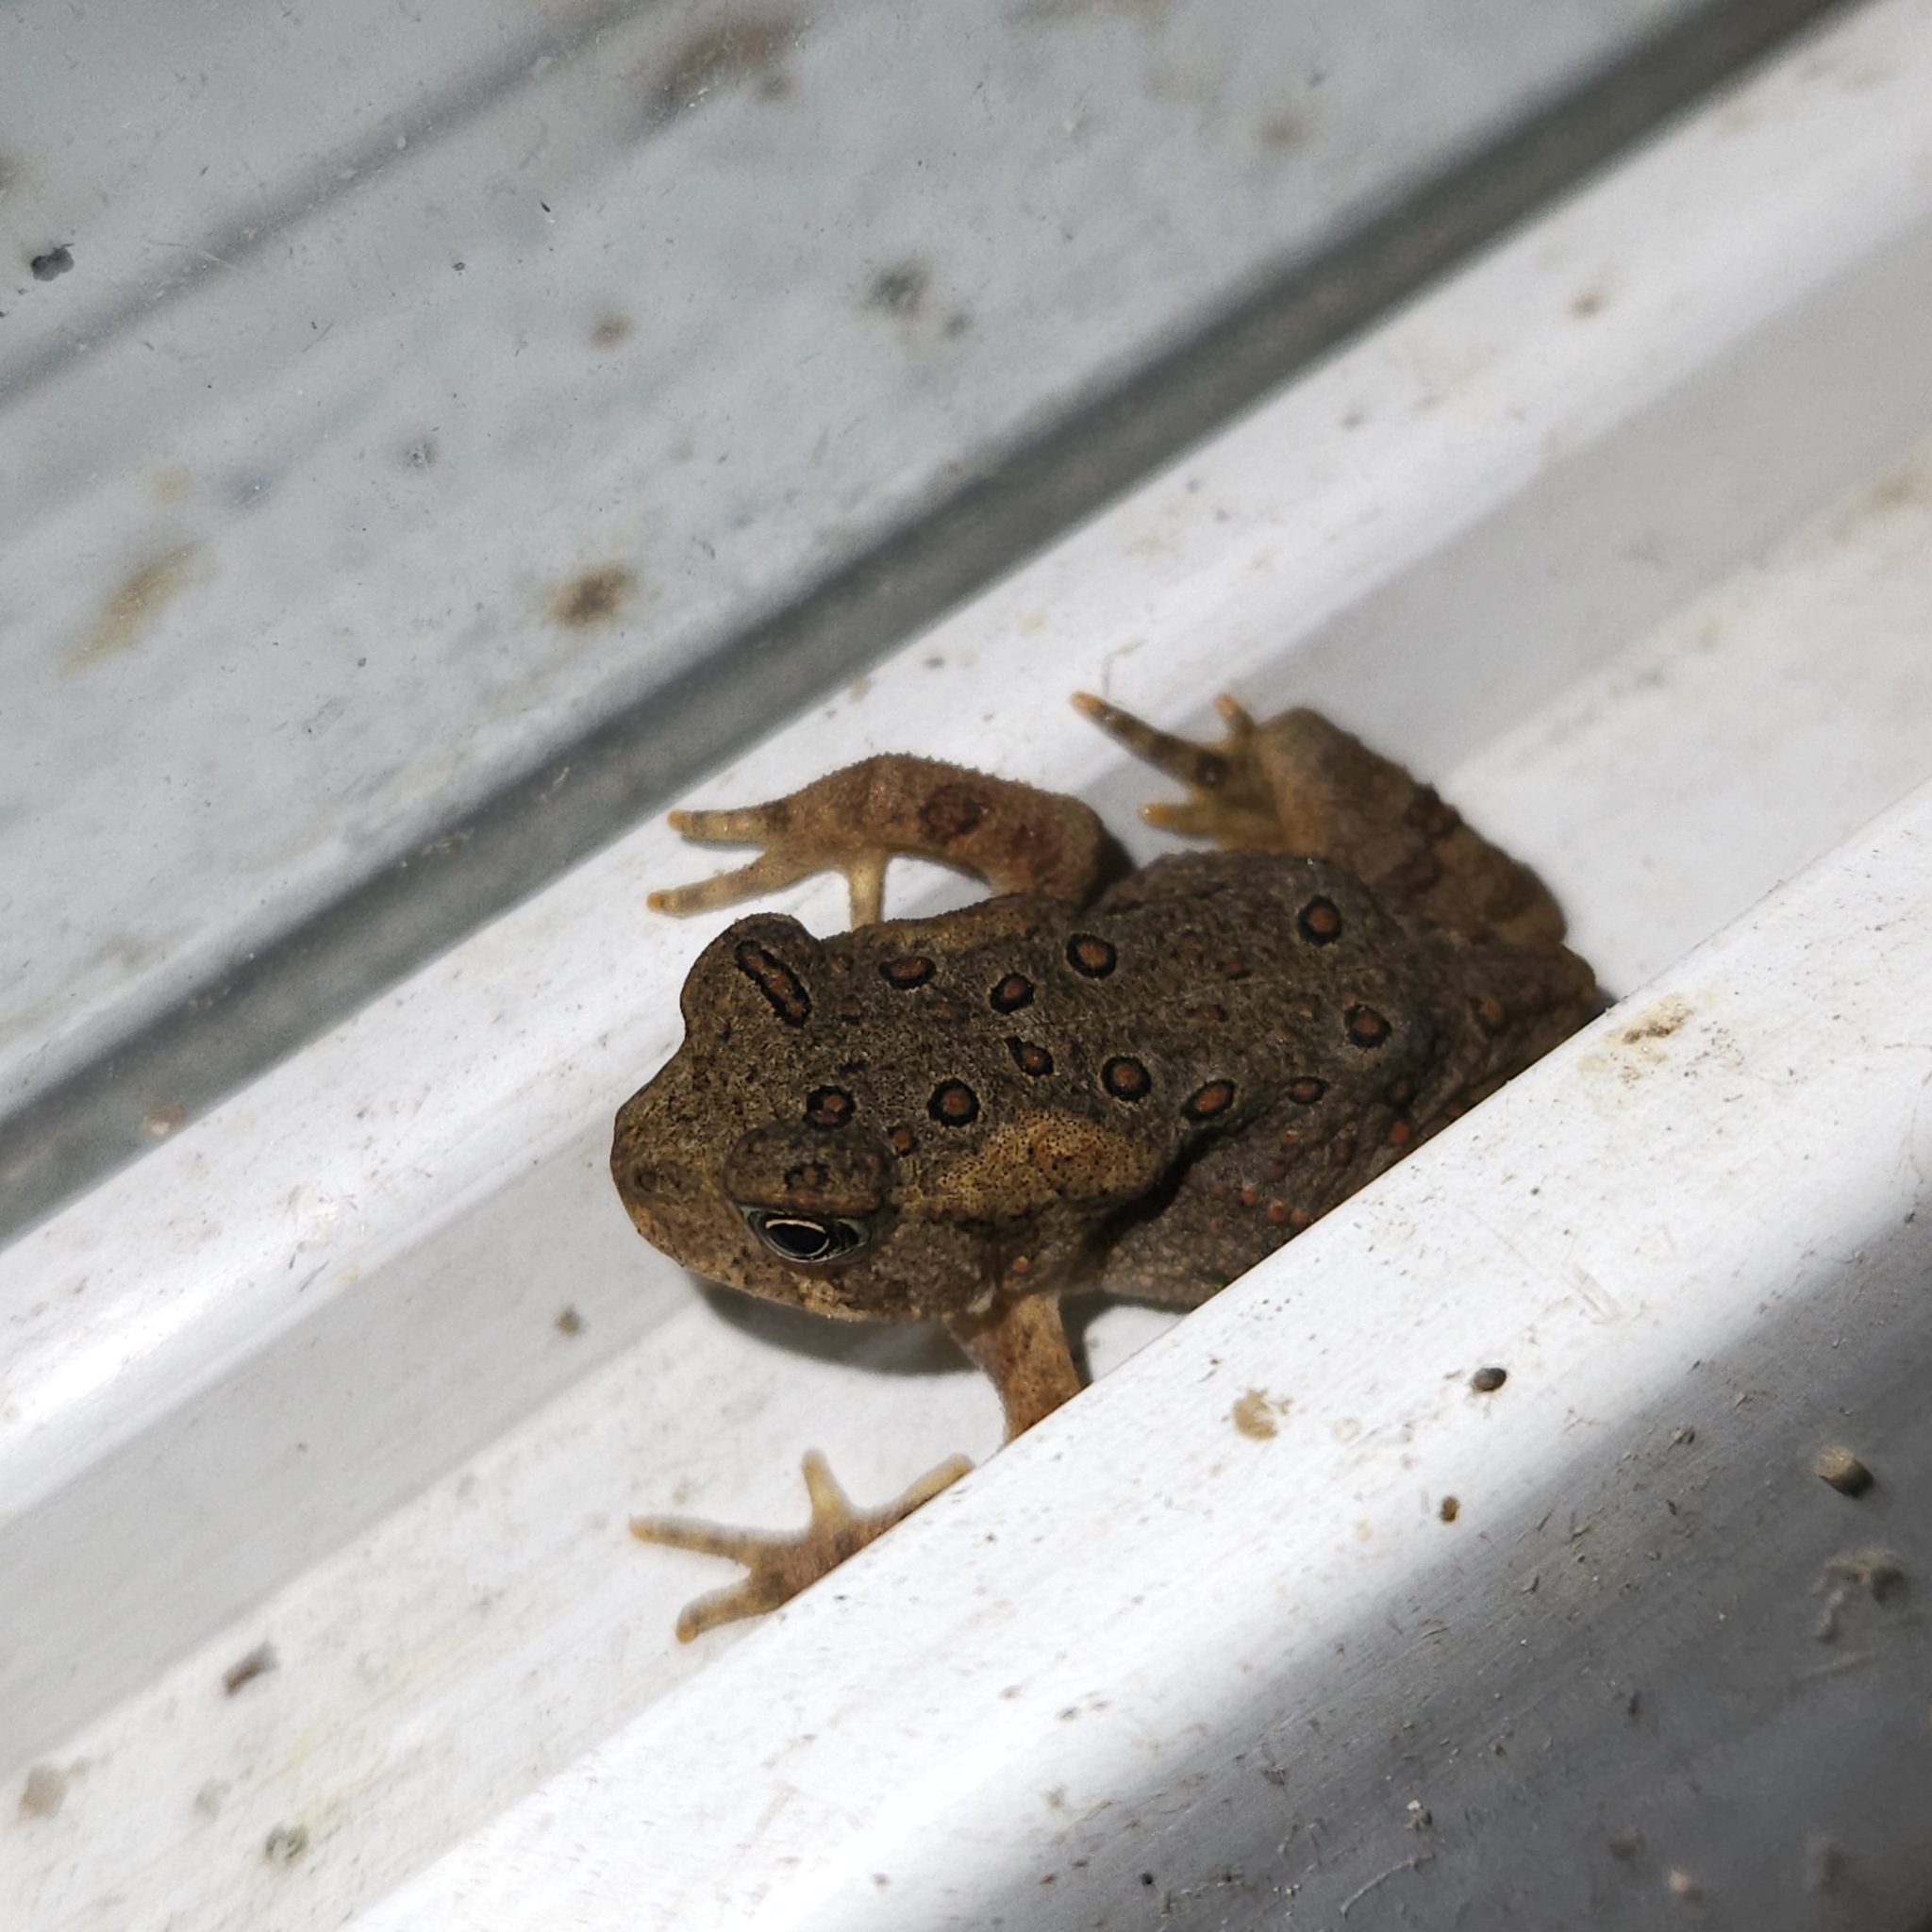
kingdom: Animalia
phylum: Chordata
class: Amphibia
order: Anura
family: Bufonidae
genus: Anaxyrus
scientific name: Anaxyrus americanus
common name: American toad
